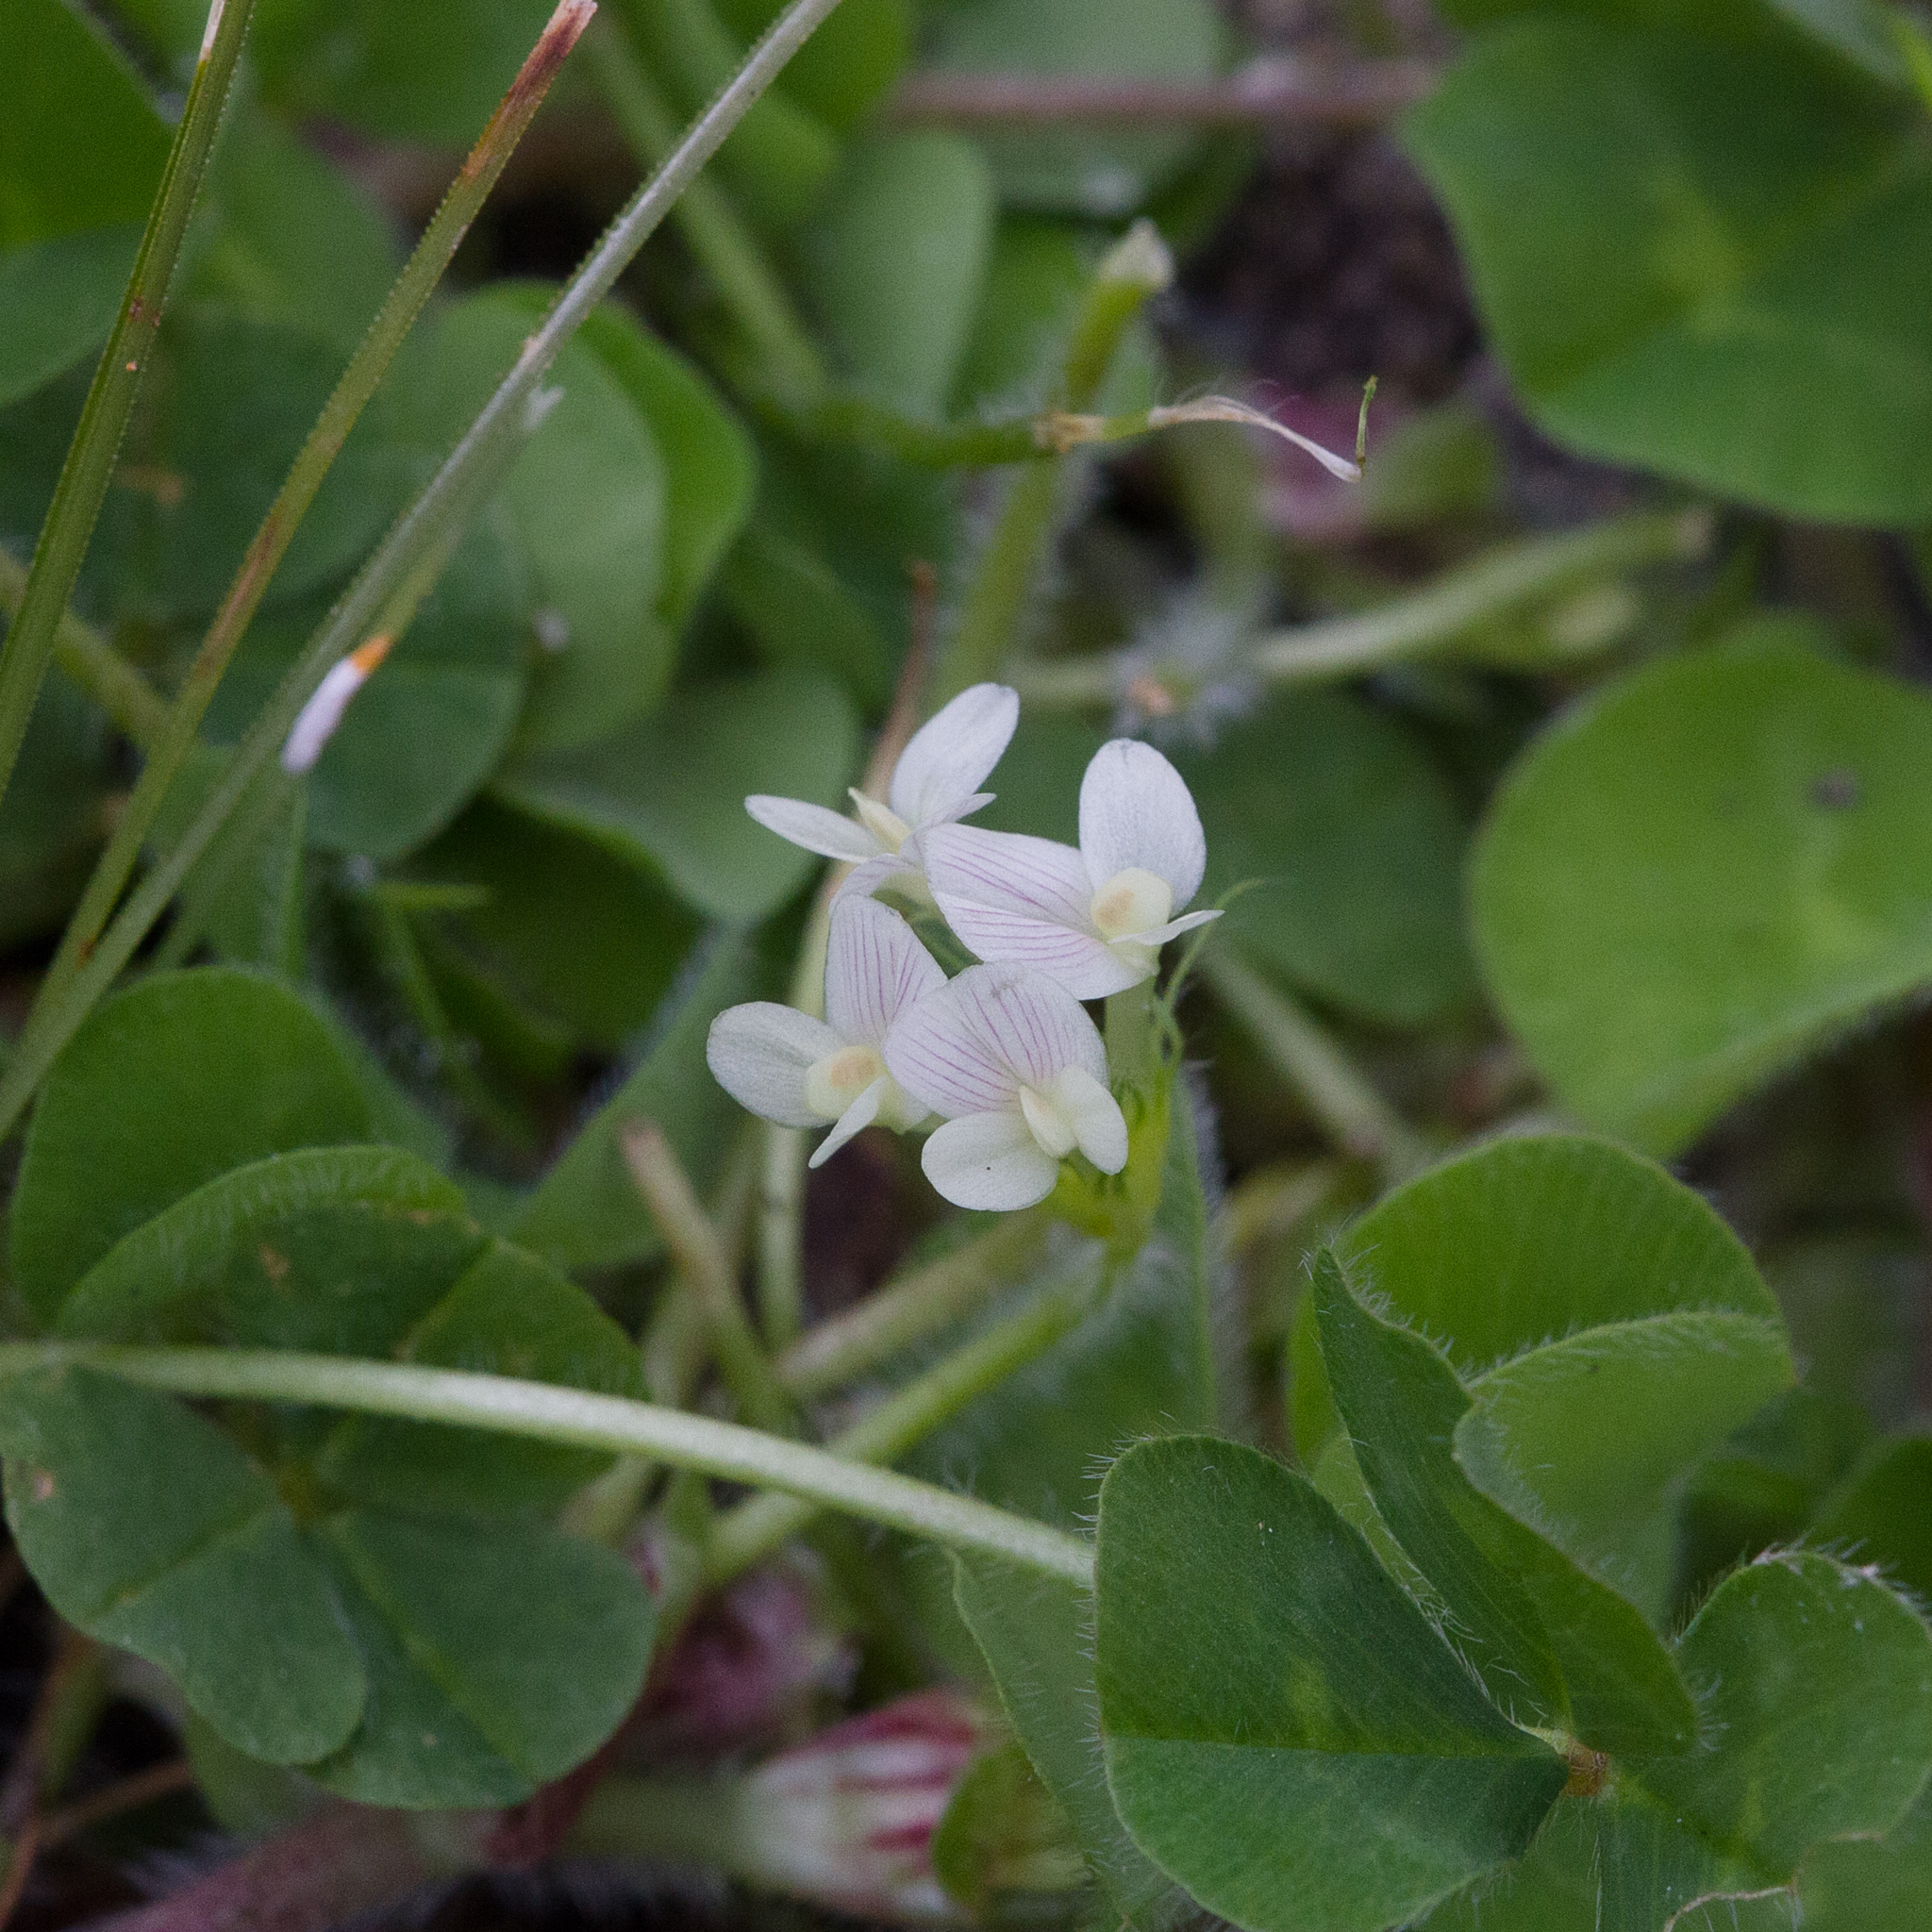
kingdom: Plantae
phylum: Tracheophyta
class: Magnoliopsida
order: Fabales
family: Fabaceae
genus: Trifolium
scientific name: Trifolium subterraneum
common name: Subterranean clover
